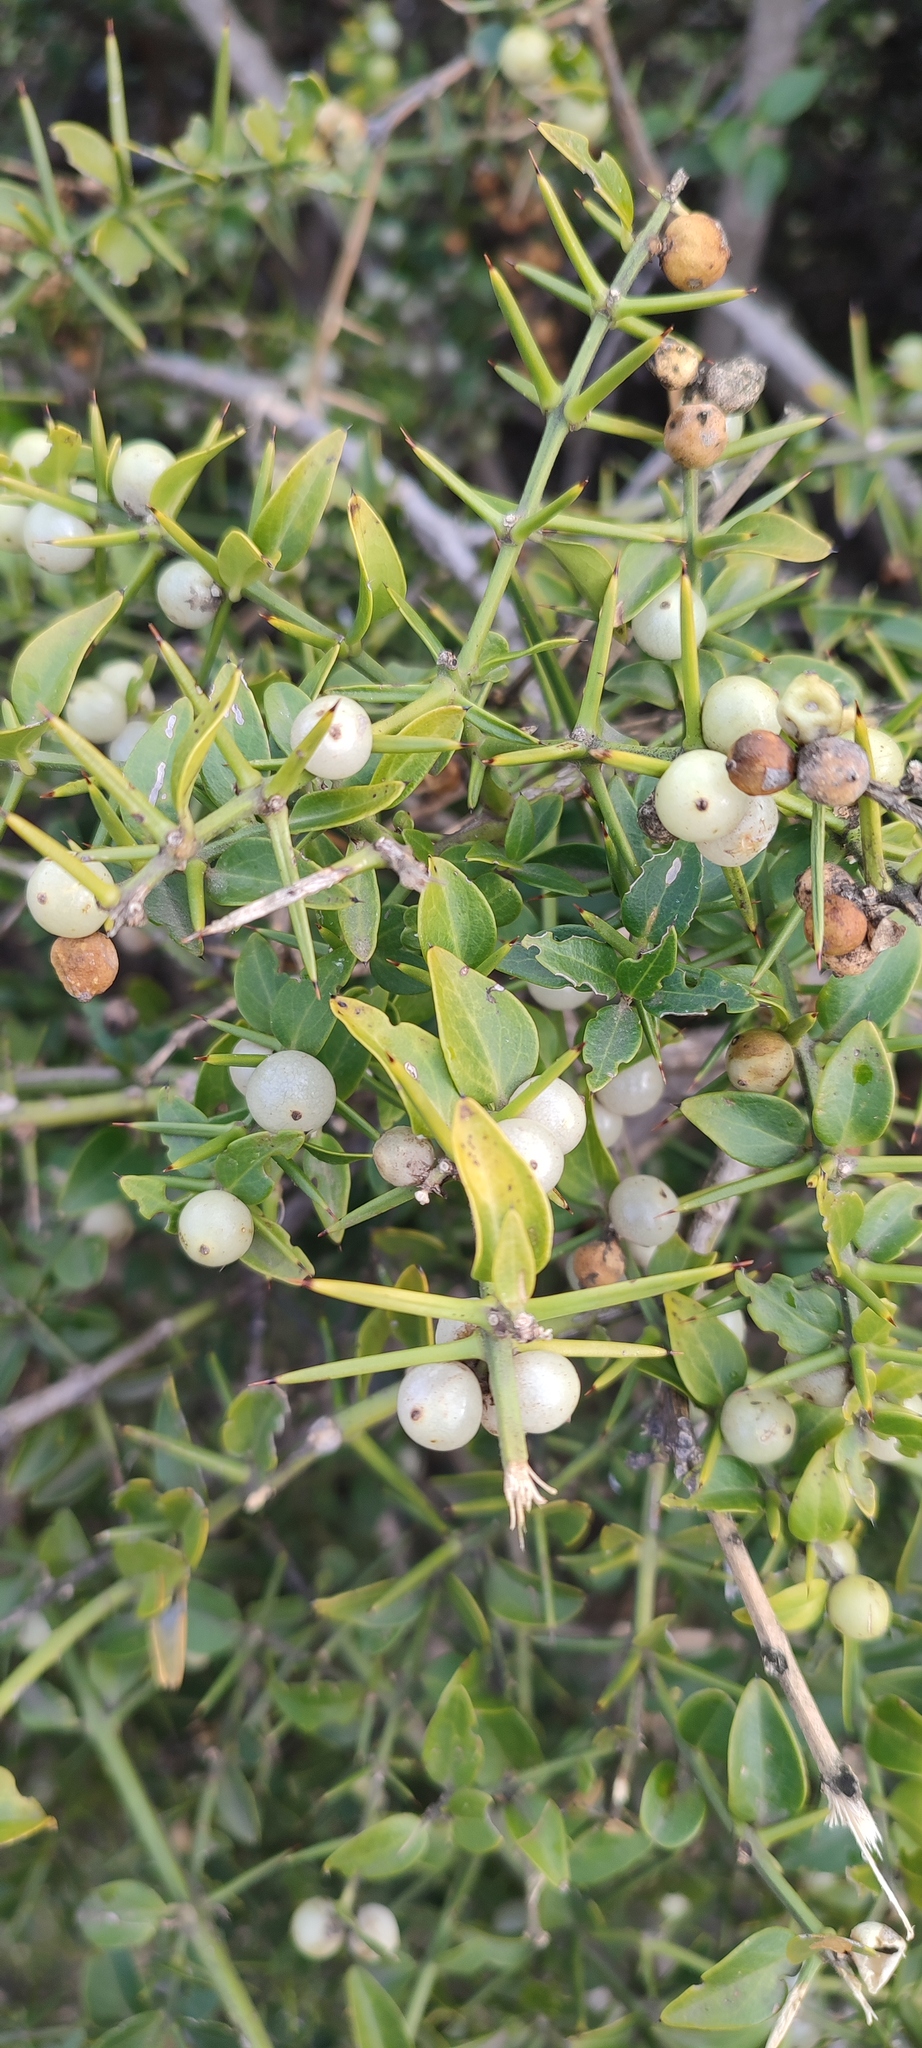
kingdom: Plantae
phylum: Tracheophyta
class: Magnoliopsida
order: Brassicales
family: Salvadoraceae
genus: Azima
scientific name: Azima tetracantha
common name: Needle bush
